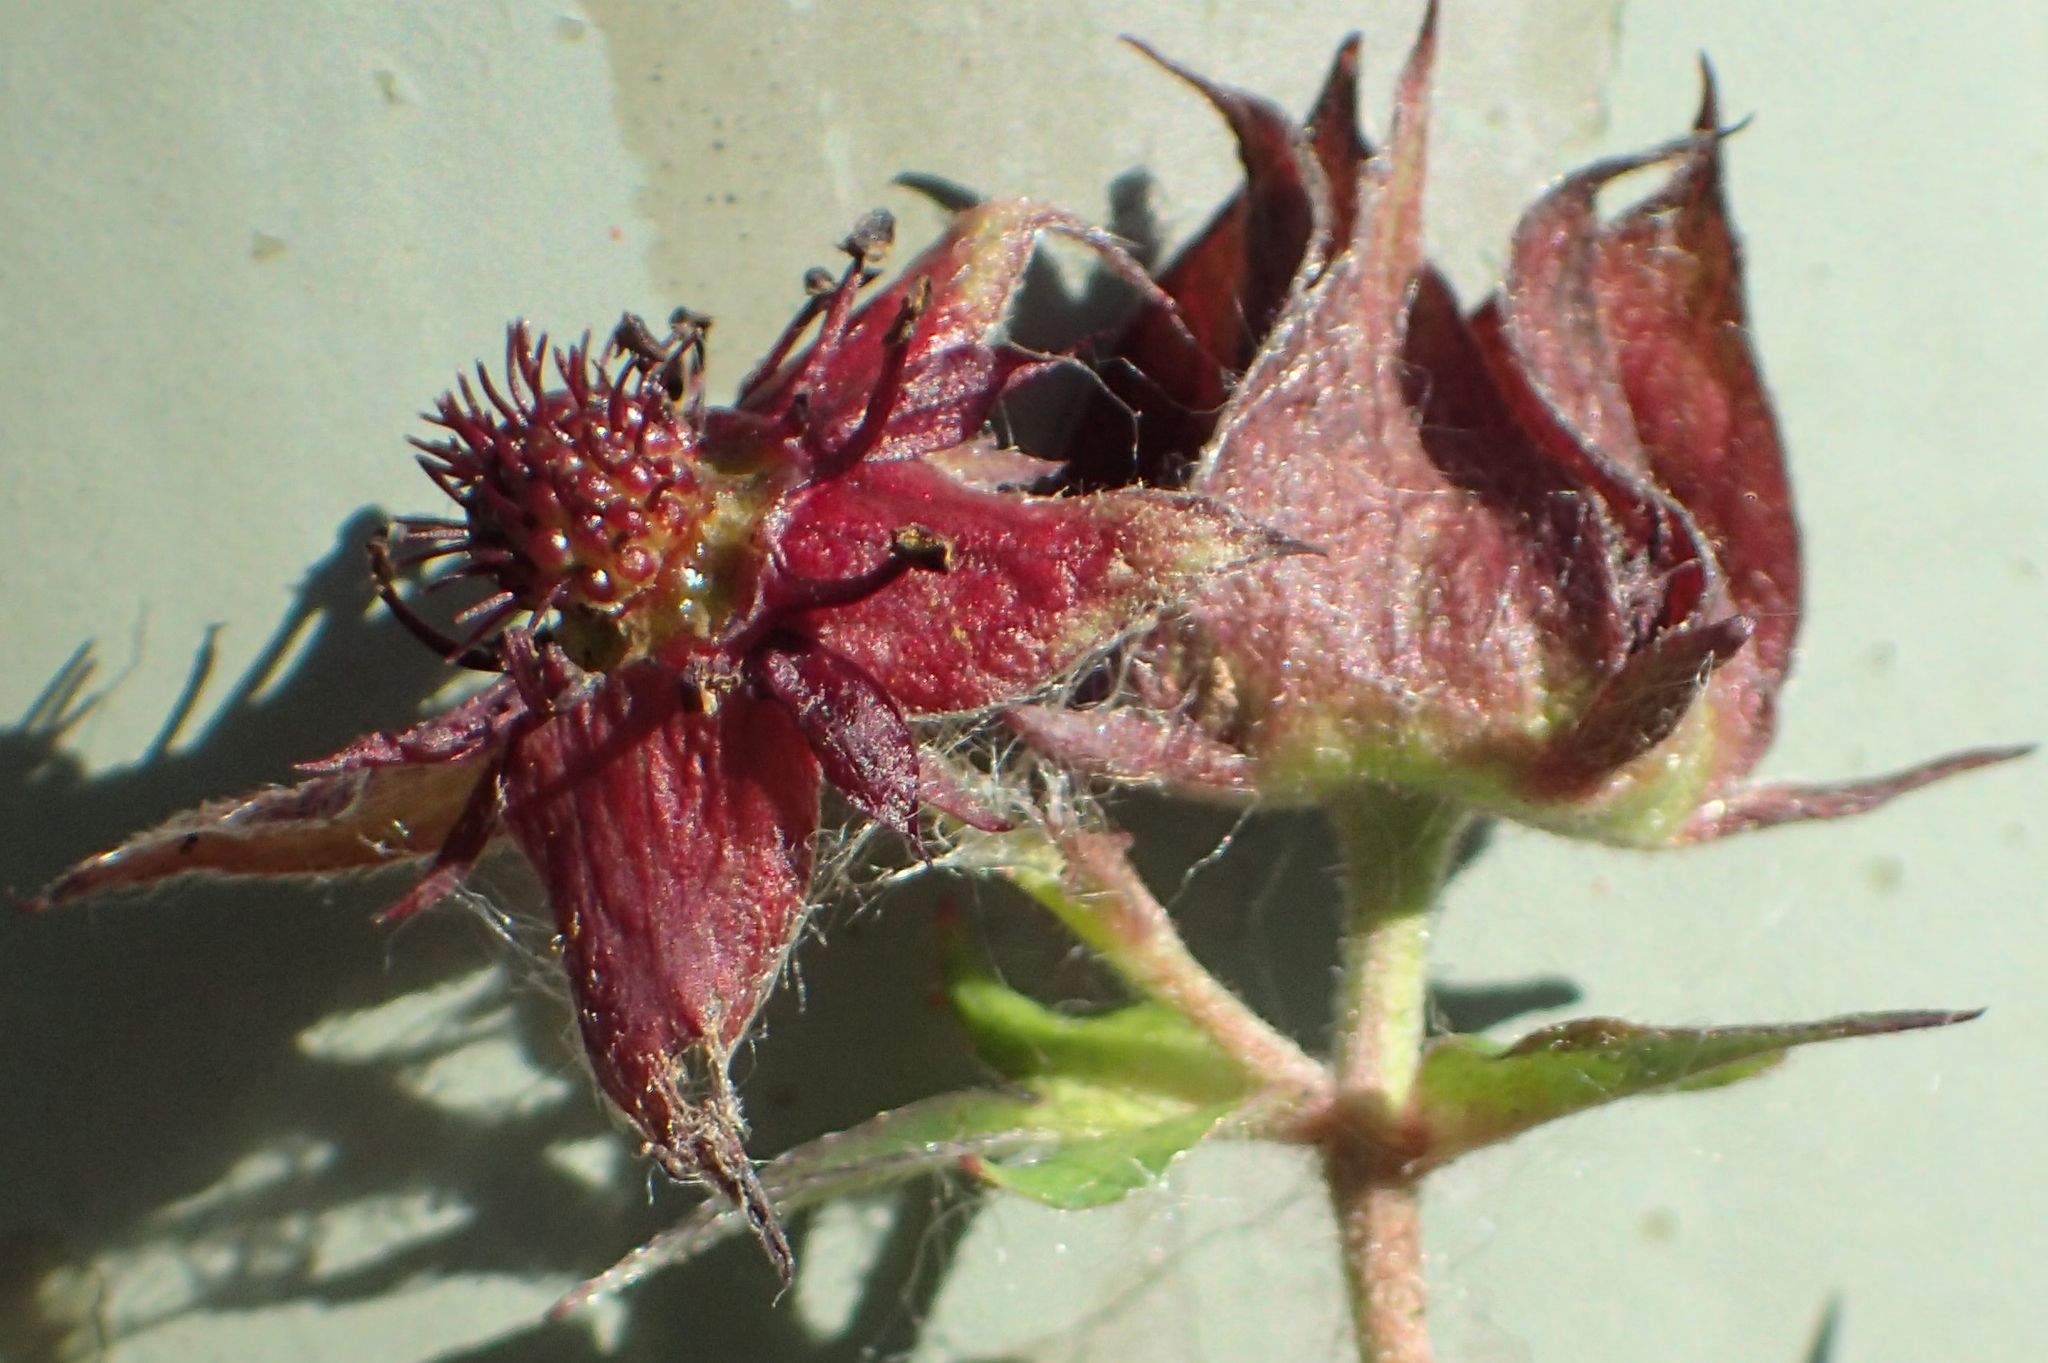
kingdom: Plantae
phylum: Tracheophyta
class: Magnoliopsida
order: Rosales
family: Rosaceae
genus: Comarum
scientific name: Comarum palustre
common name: Marsh cinquefoil
